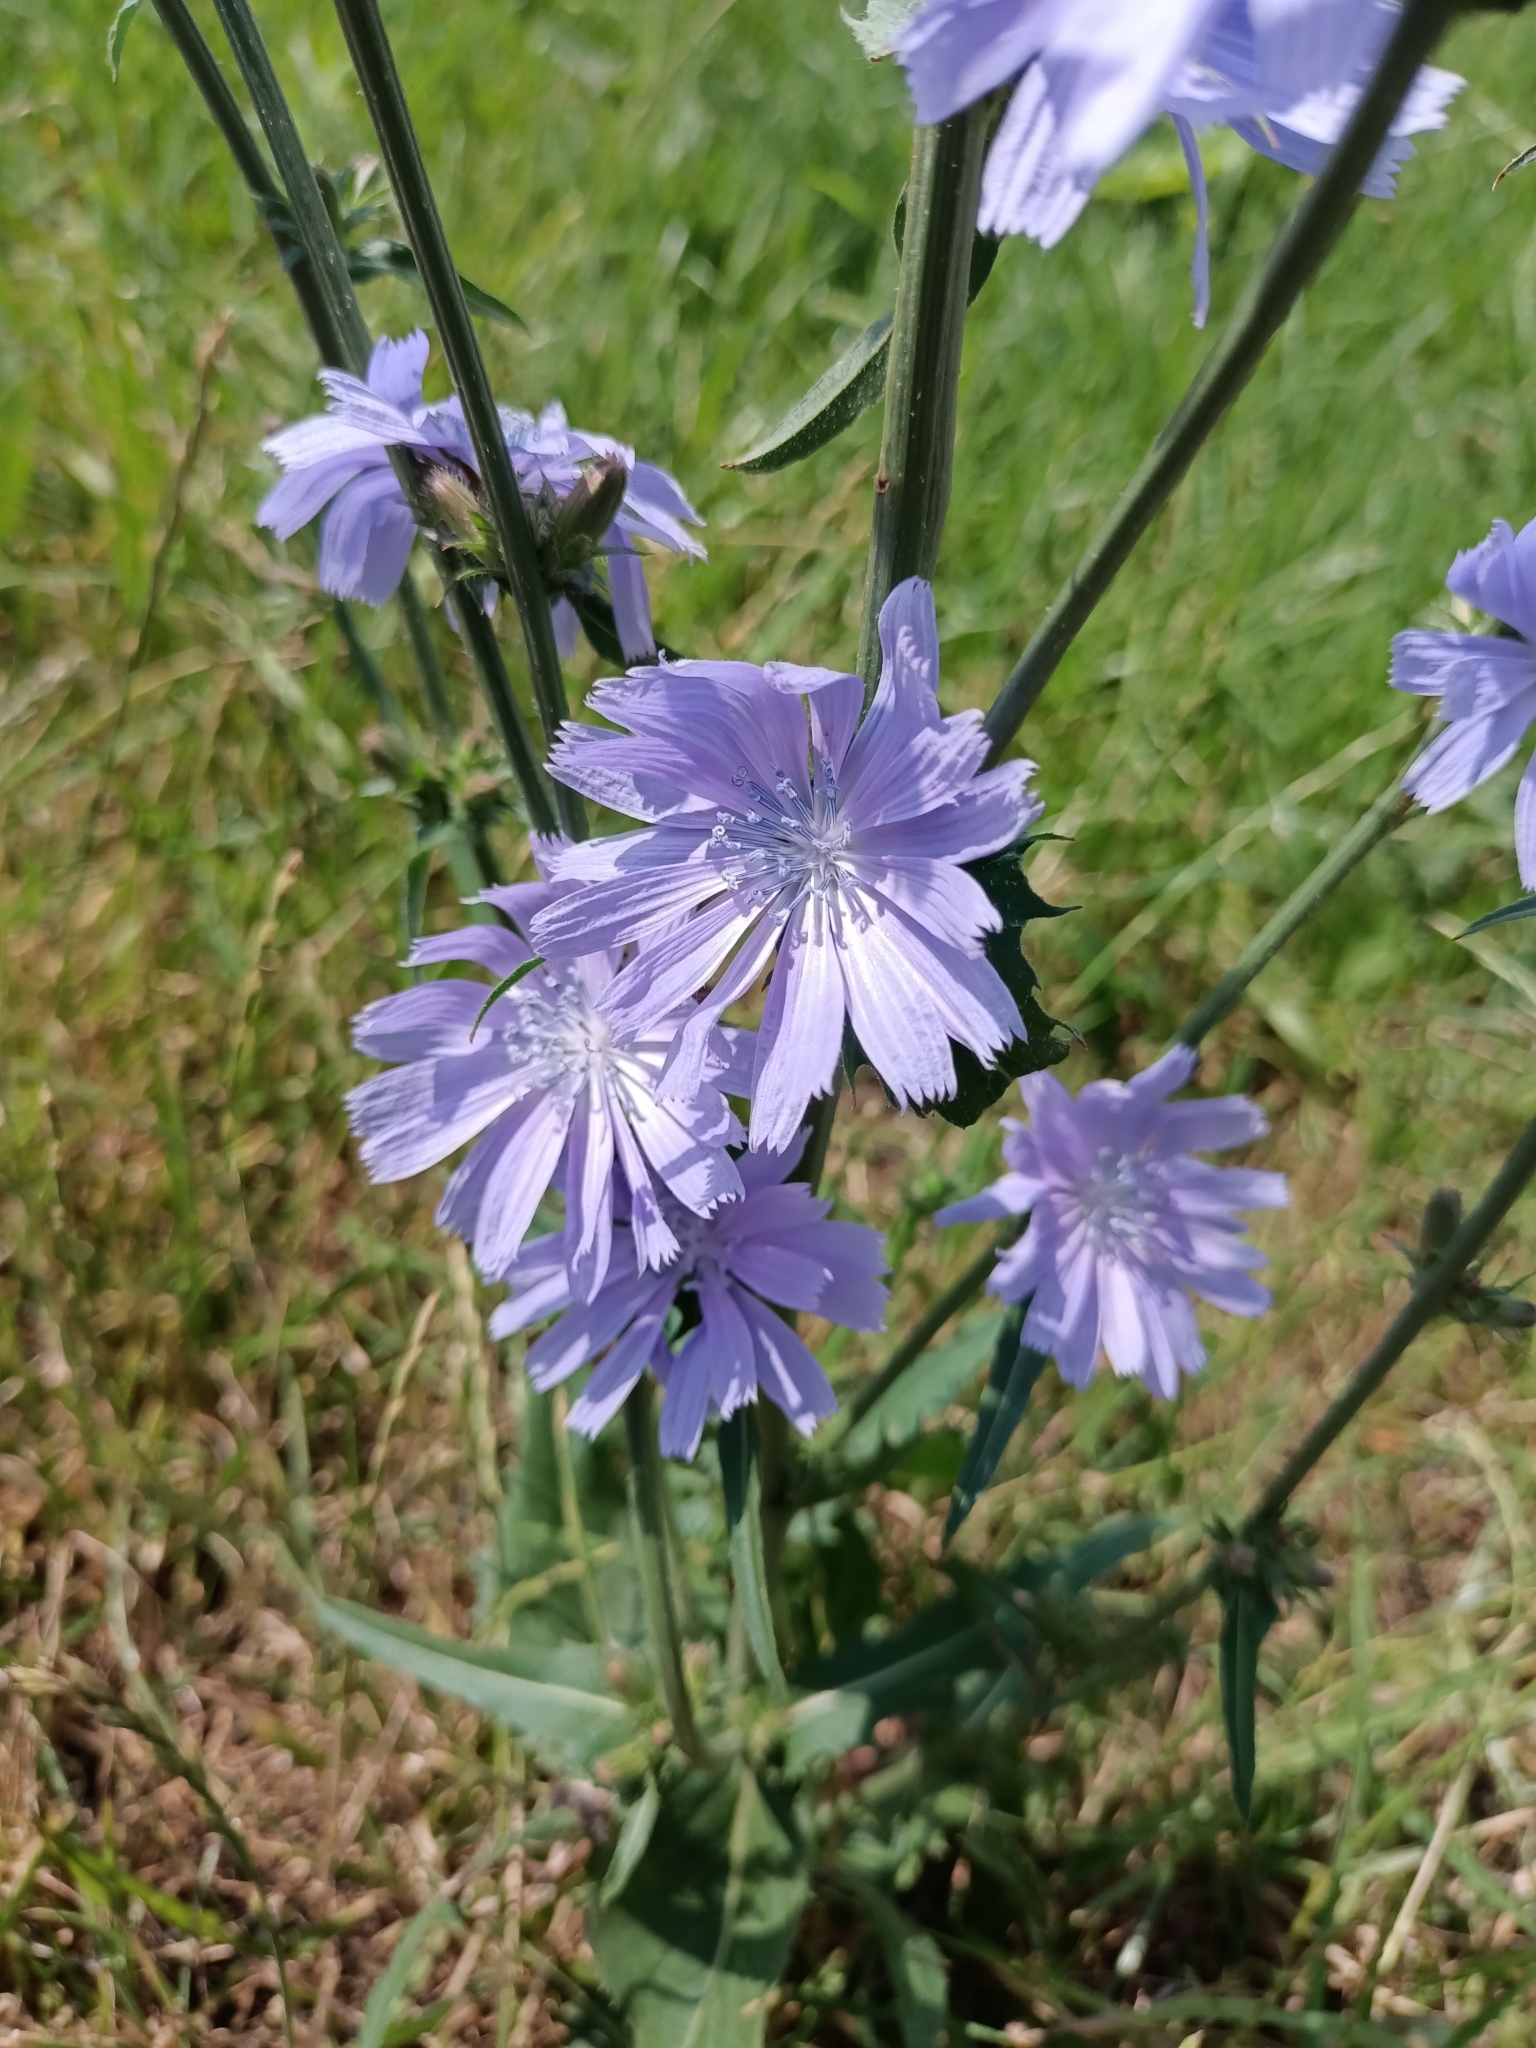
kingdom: Plantae
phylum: Tracheophyta
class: Magnoliopsida
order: Asterales
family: Asteraceae
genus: Cichorium
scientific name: Cichorium intybus
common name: Chicory
